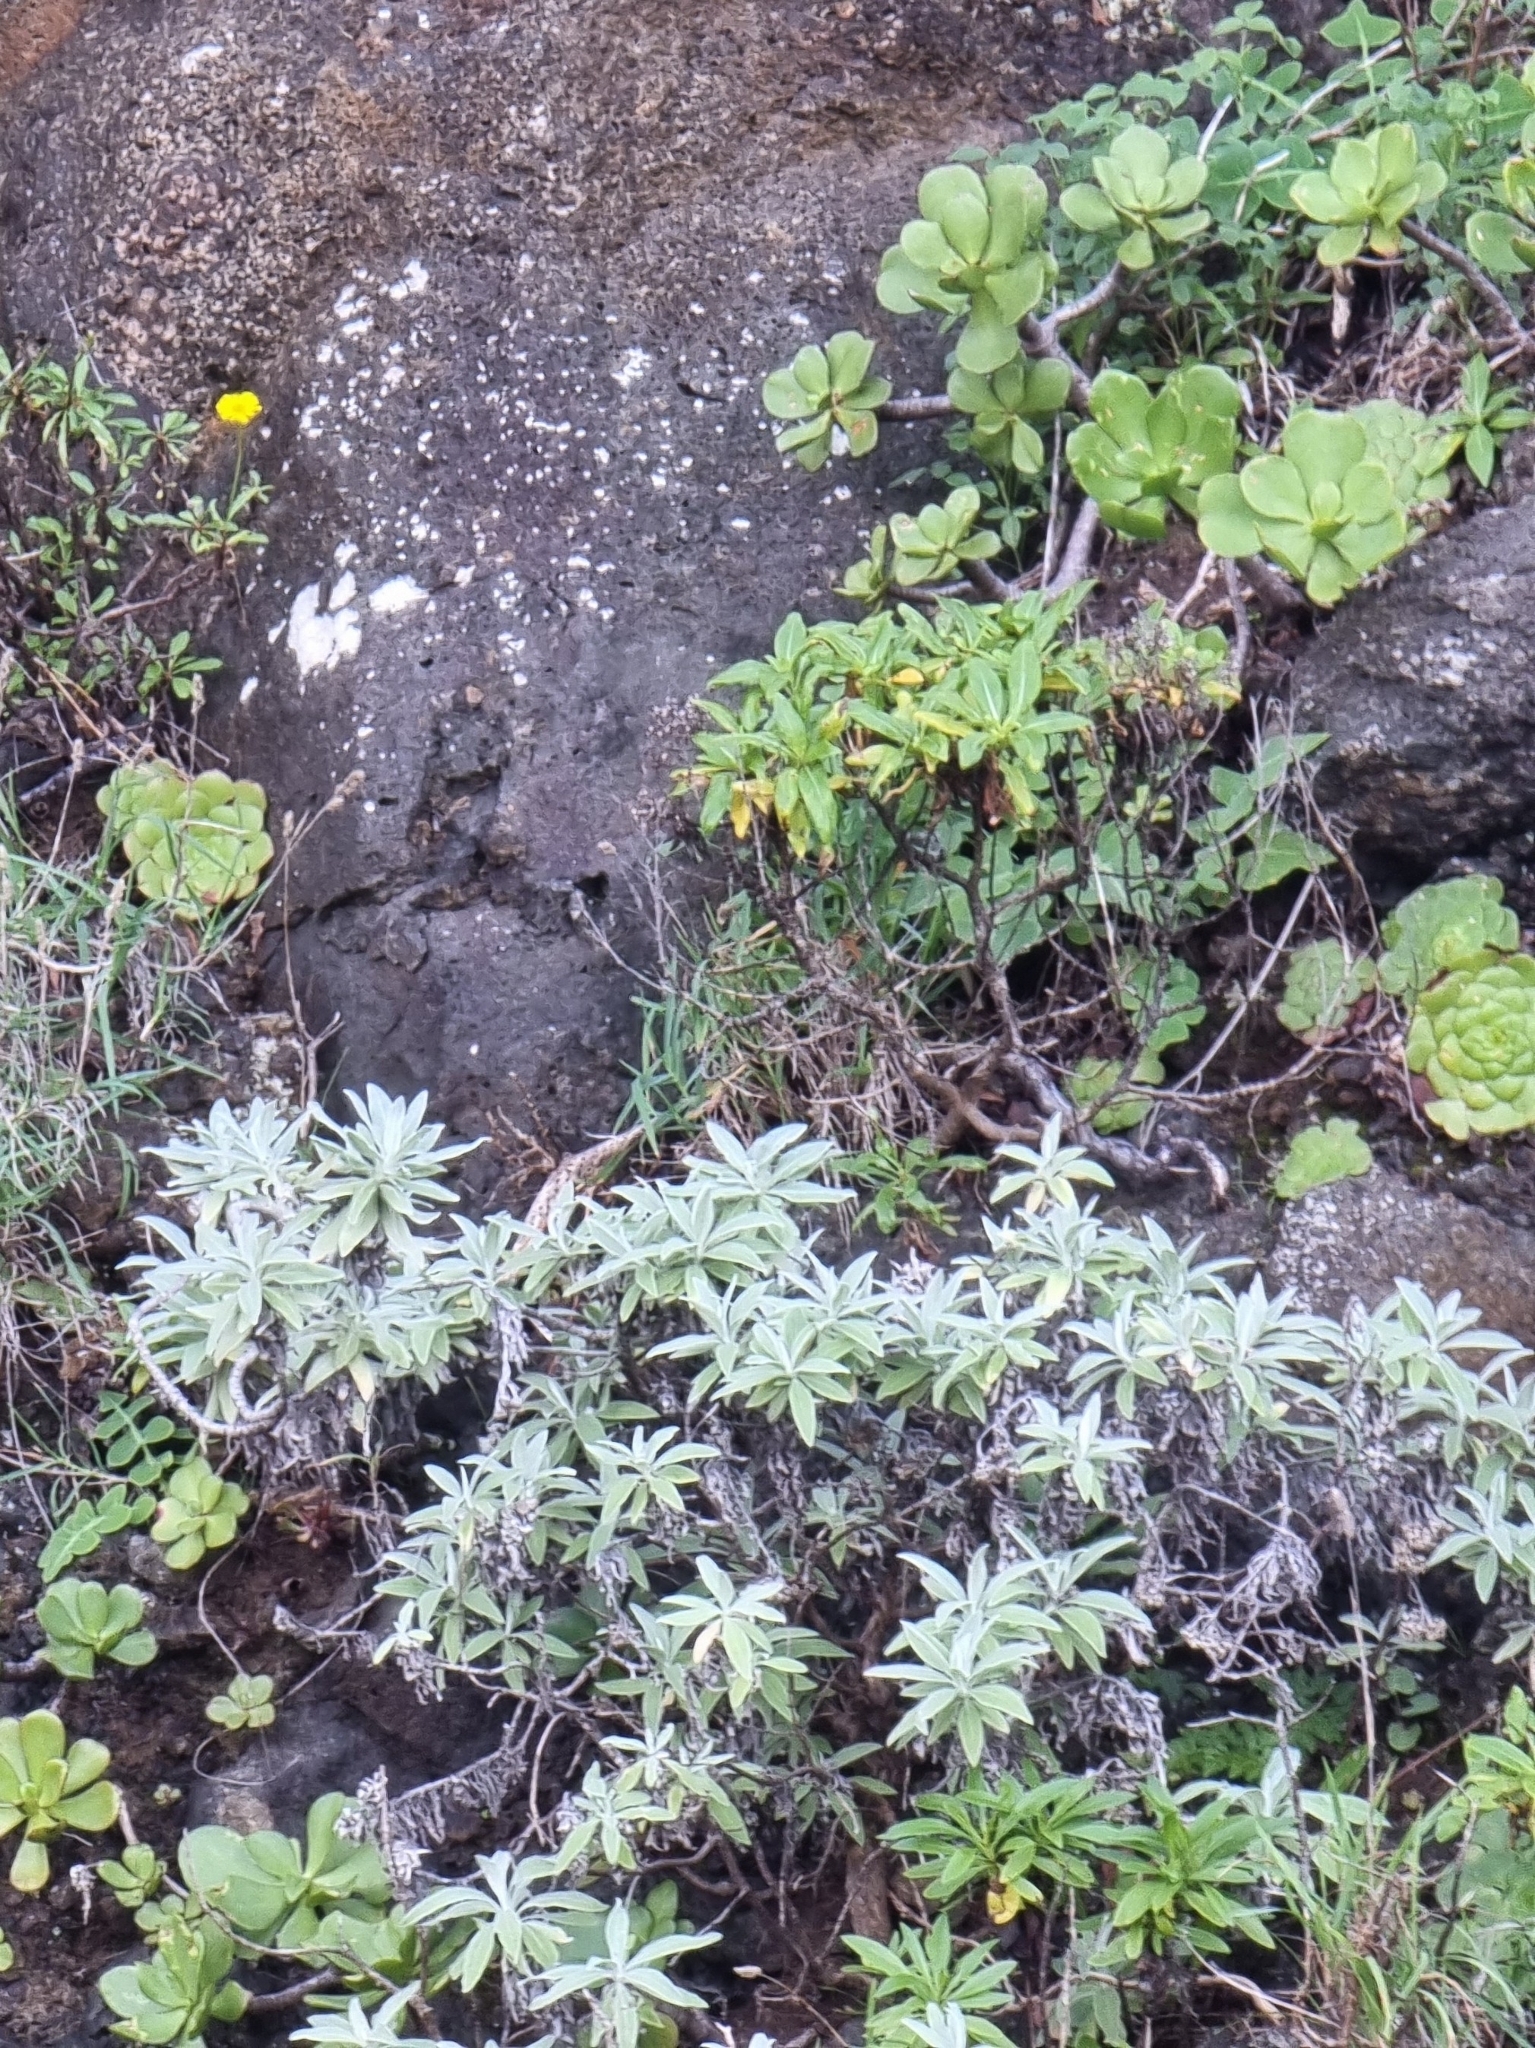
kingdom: Plantae
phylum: Tracheophyta
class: Magnoliopsida
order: Asterales
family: Asteraceae
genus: Helichrysum
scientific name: Helichrysum melaleucum
